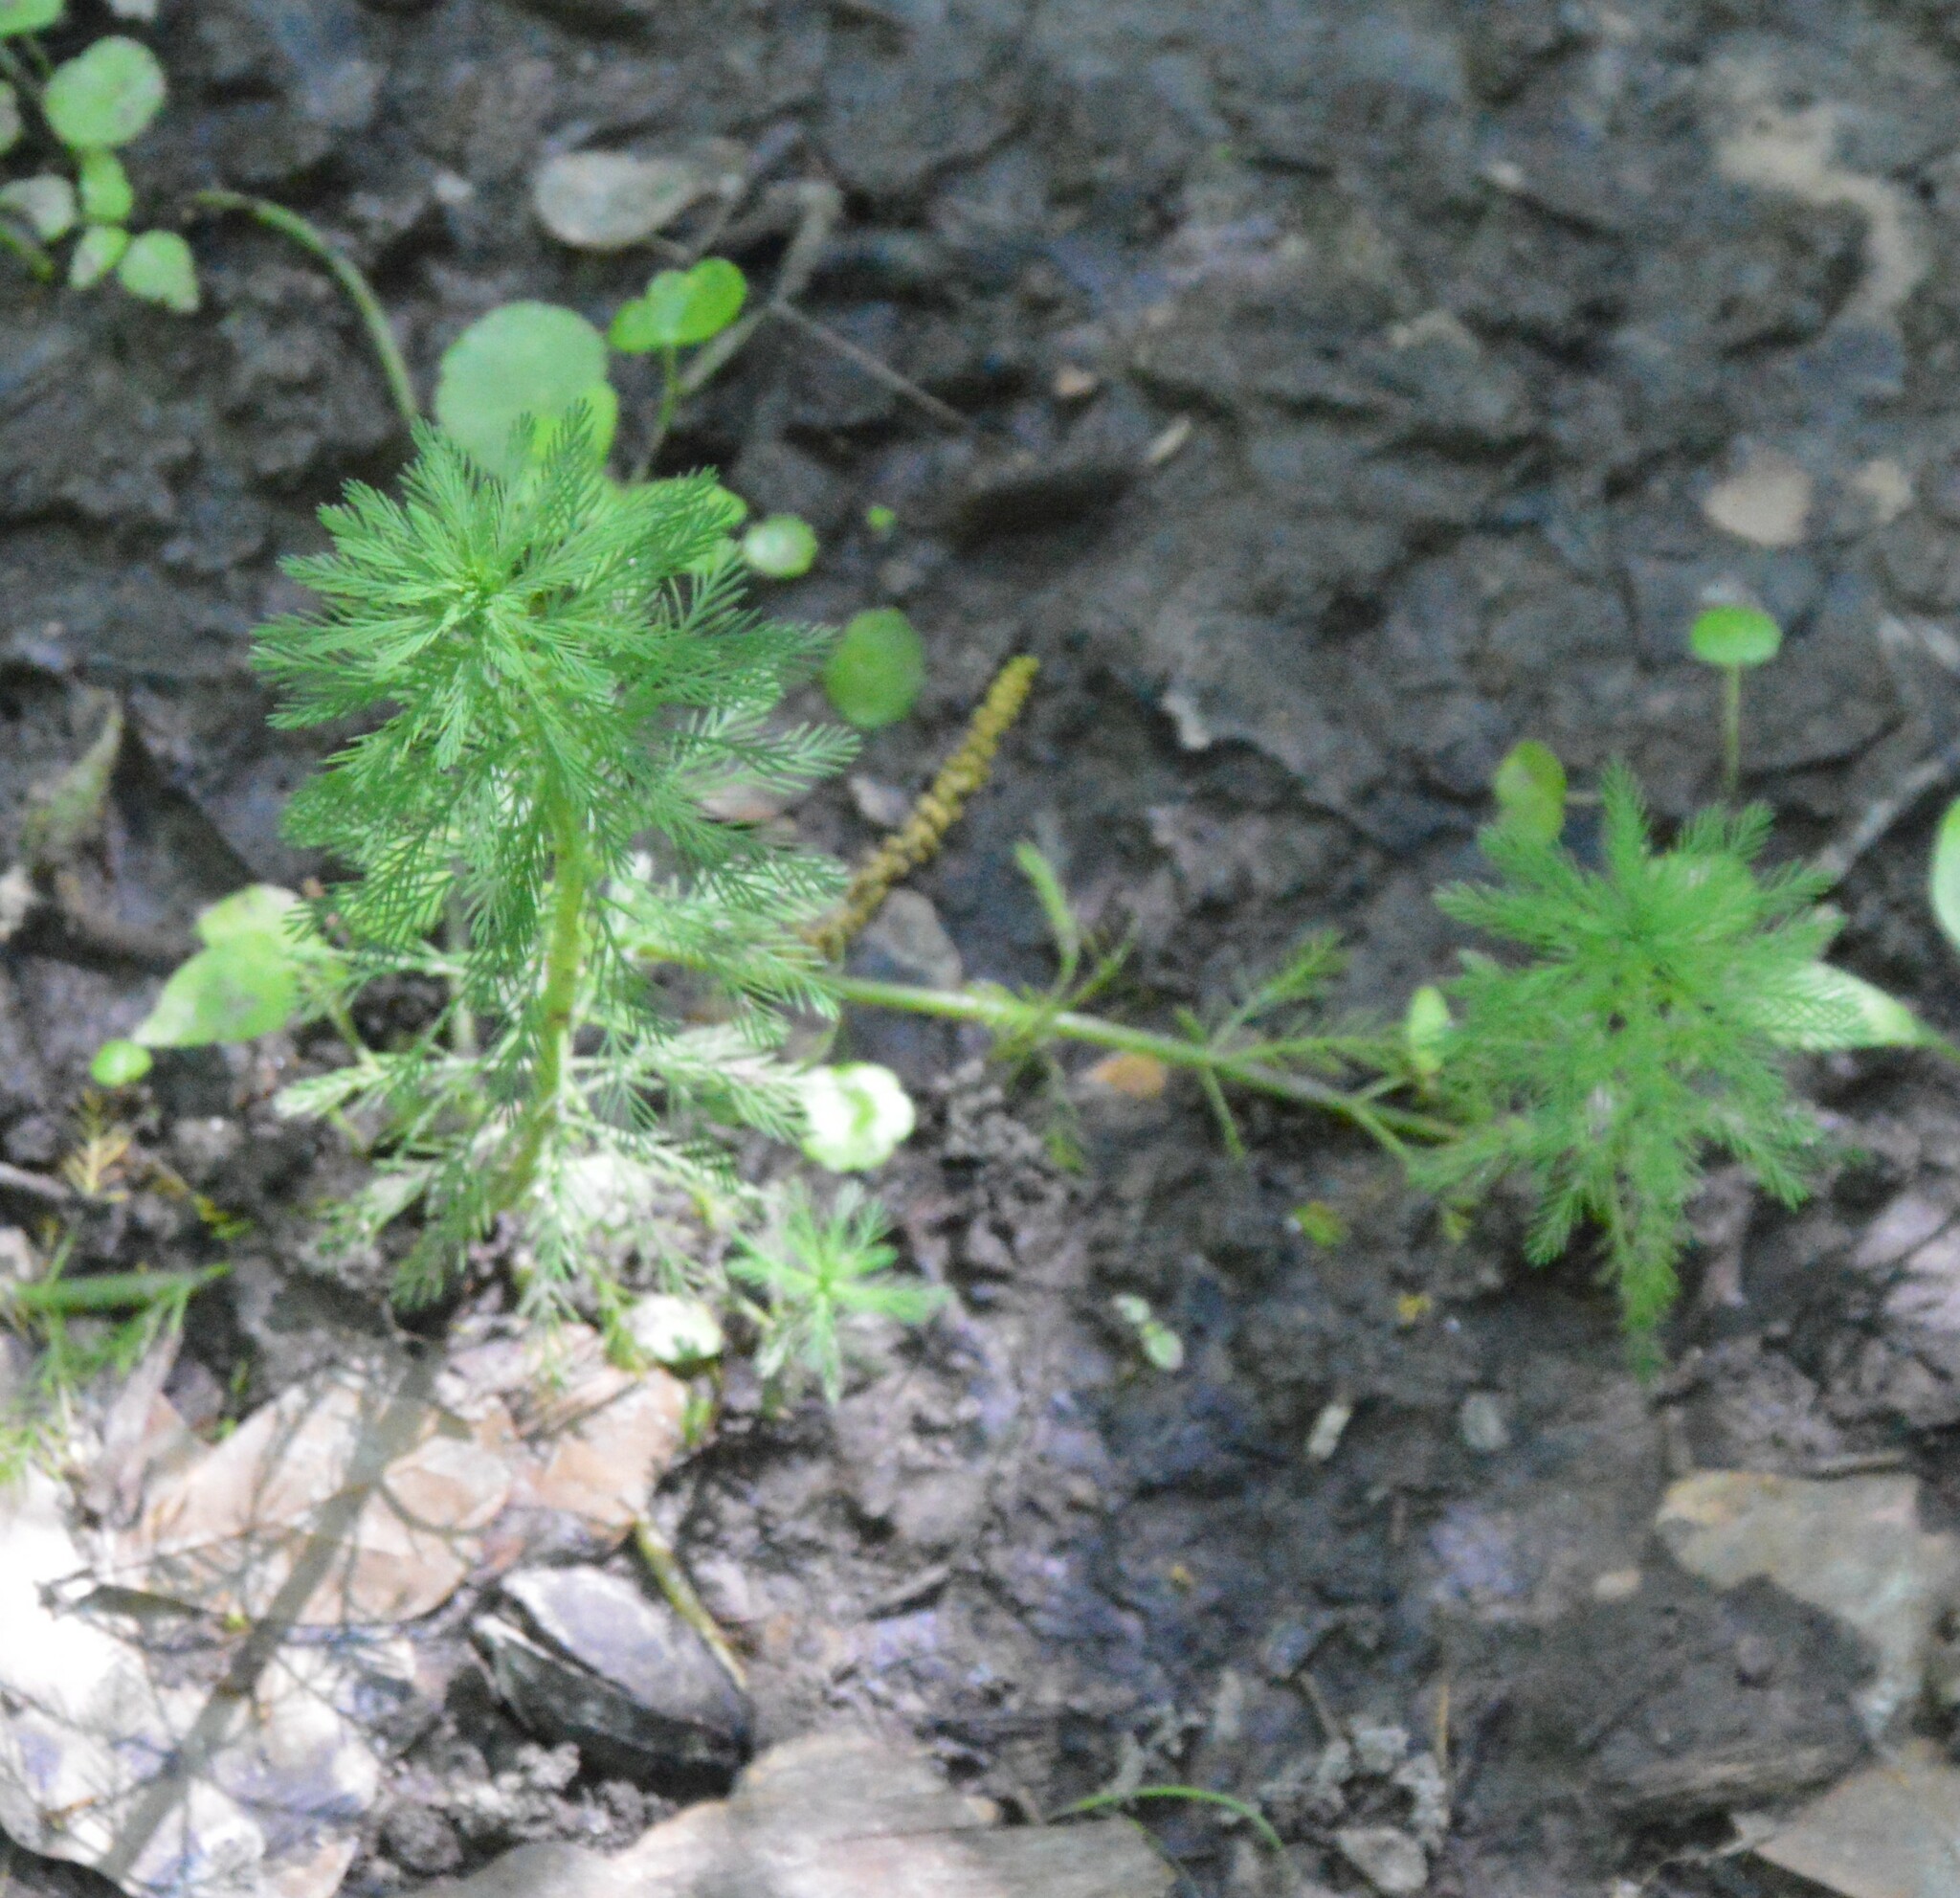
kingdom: Plantae
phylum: Tracheophyta
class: Magnoliopsida
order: Saxifragales
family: Haloragaceae
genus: Myriophyllum
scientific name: Myriophyllum aquaticum
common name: Parrot's feather
